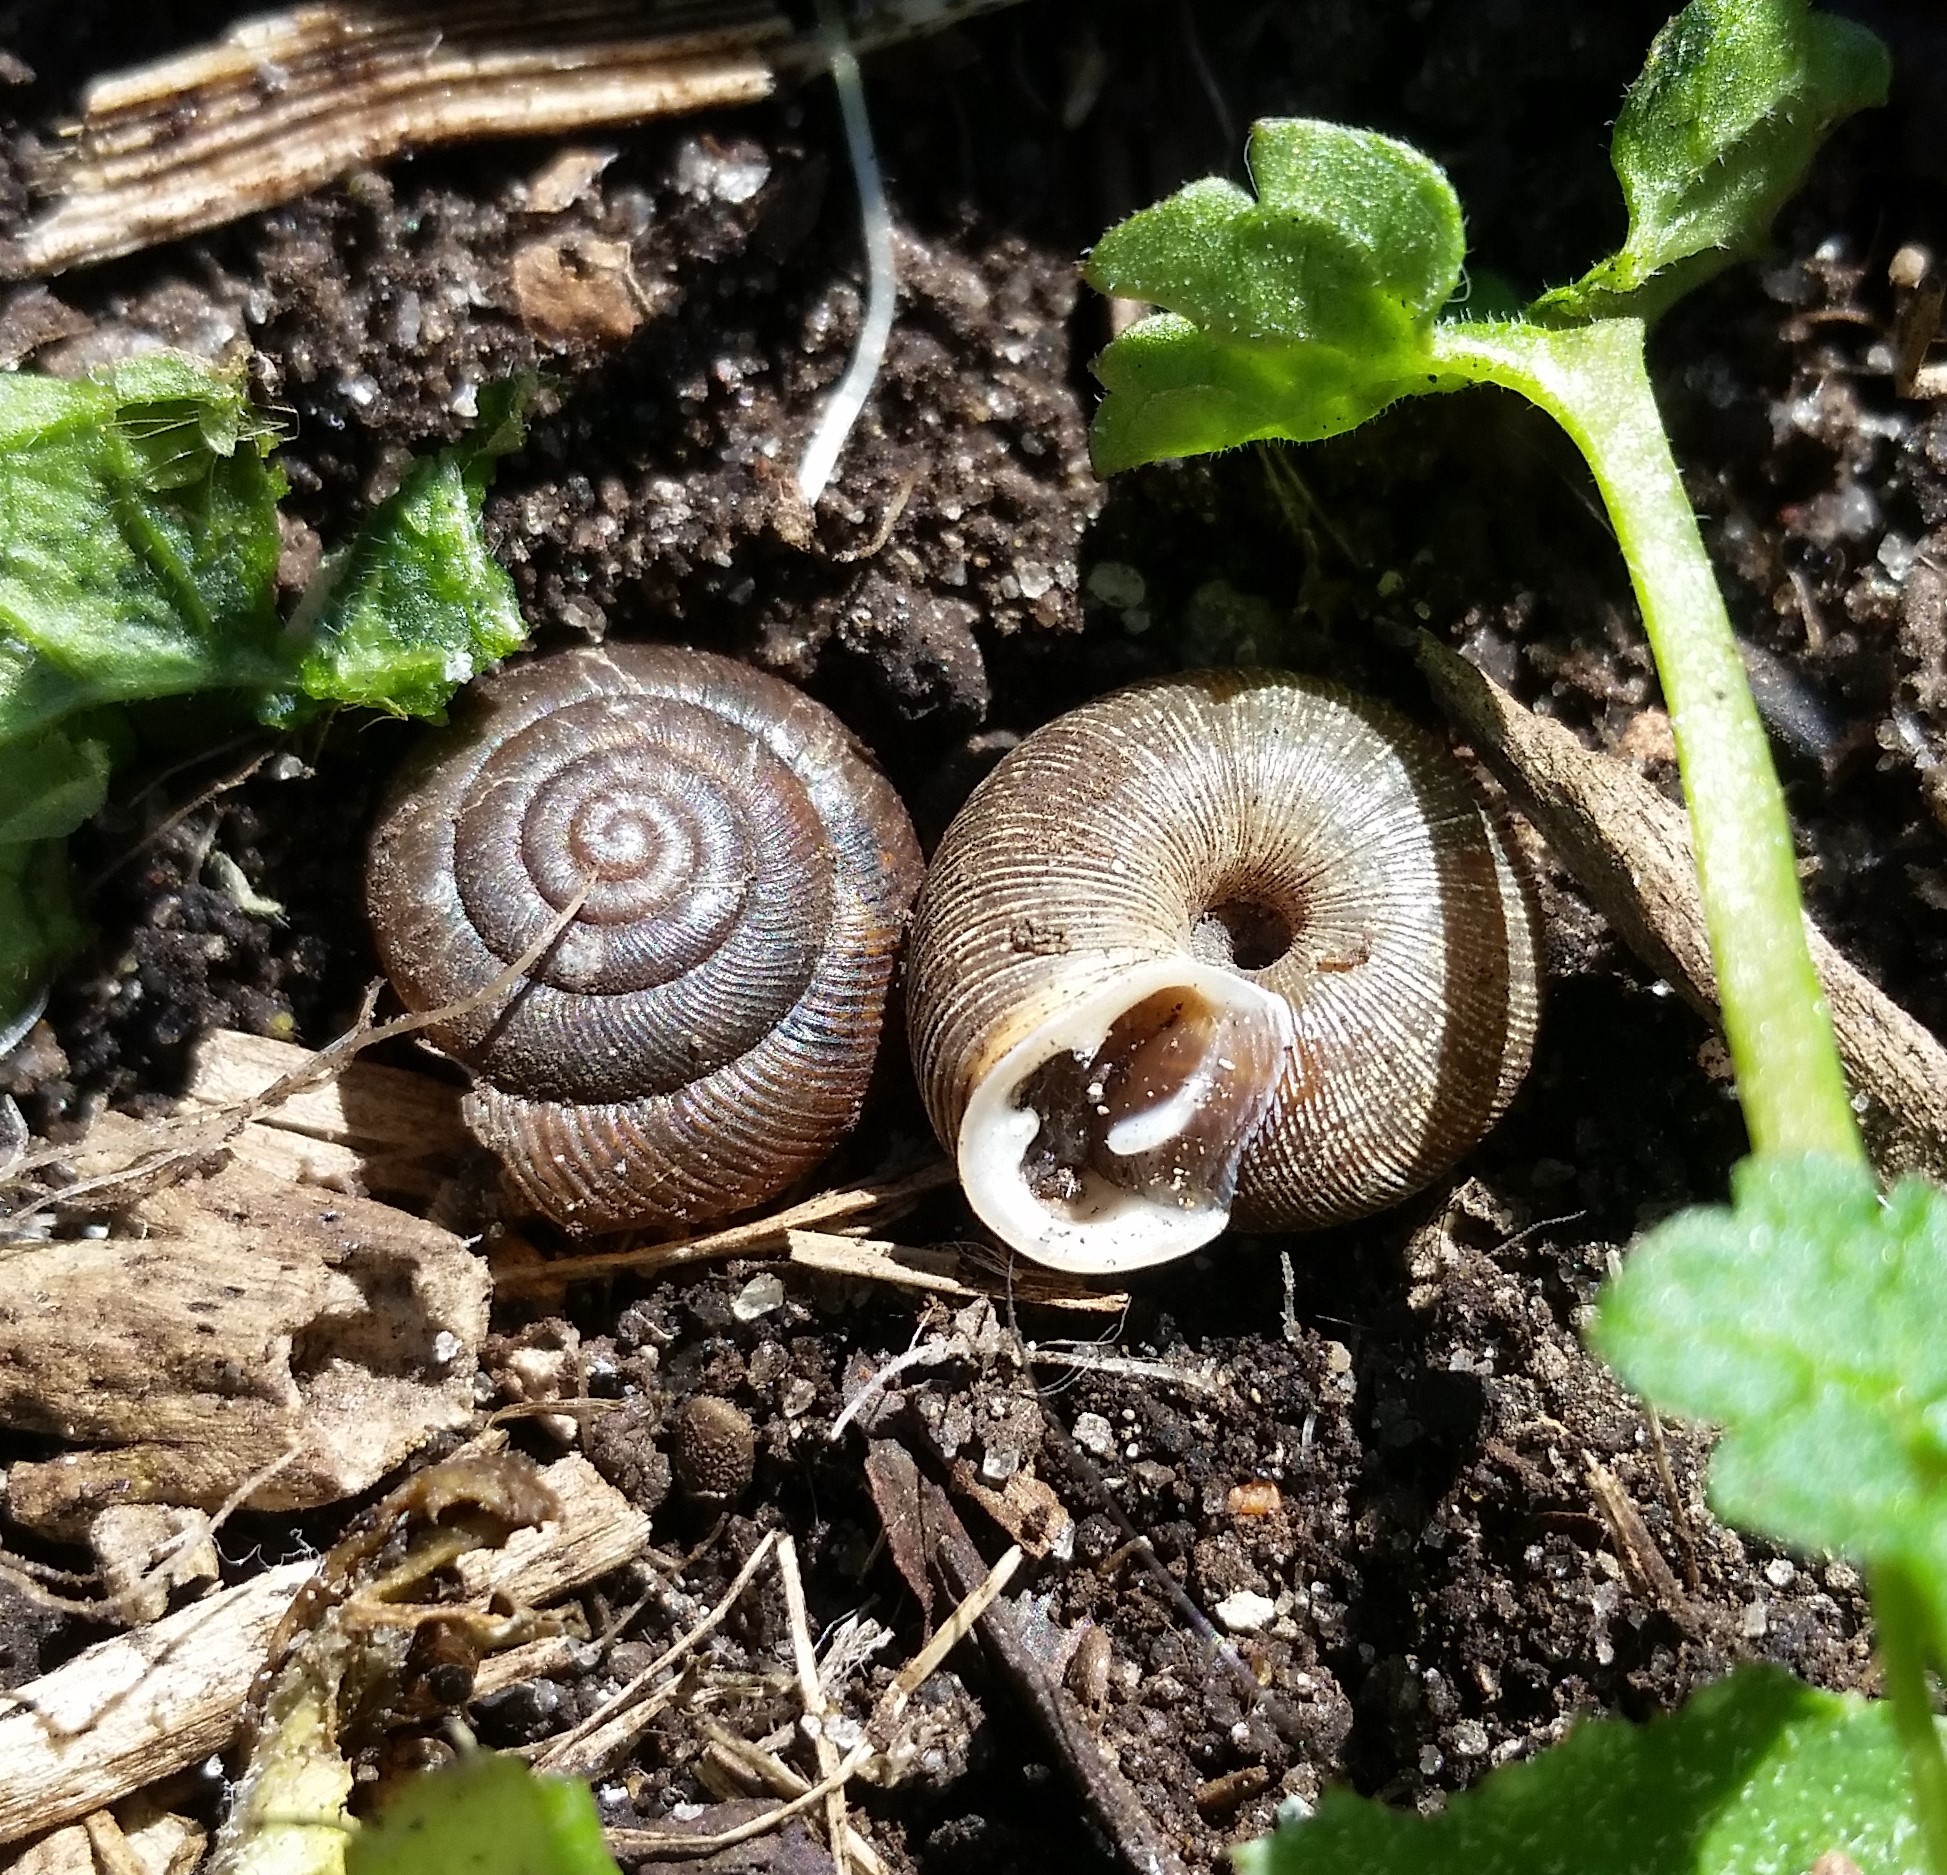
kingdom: Animalia
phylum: Mollusca
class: Gastropoda
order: Stylommatophora
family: Polygyridae
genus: Triodopsis
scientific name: Triodopsis hopetonensis
